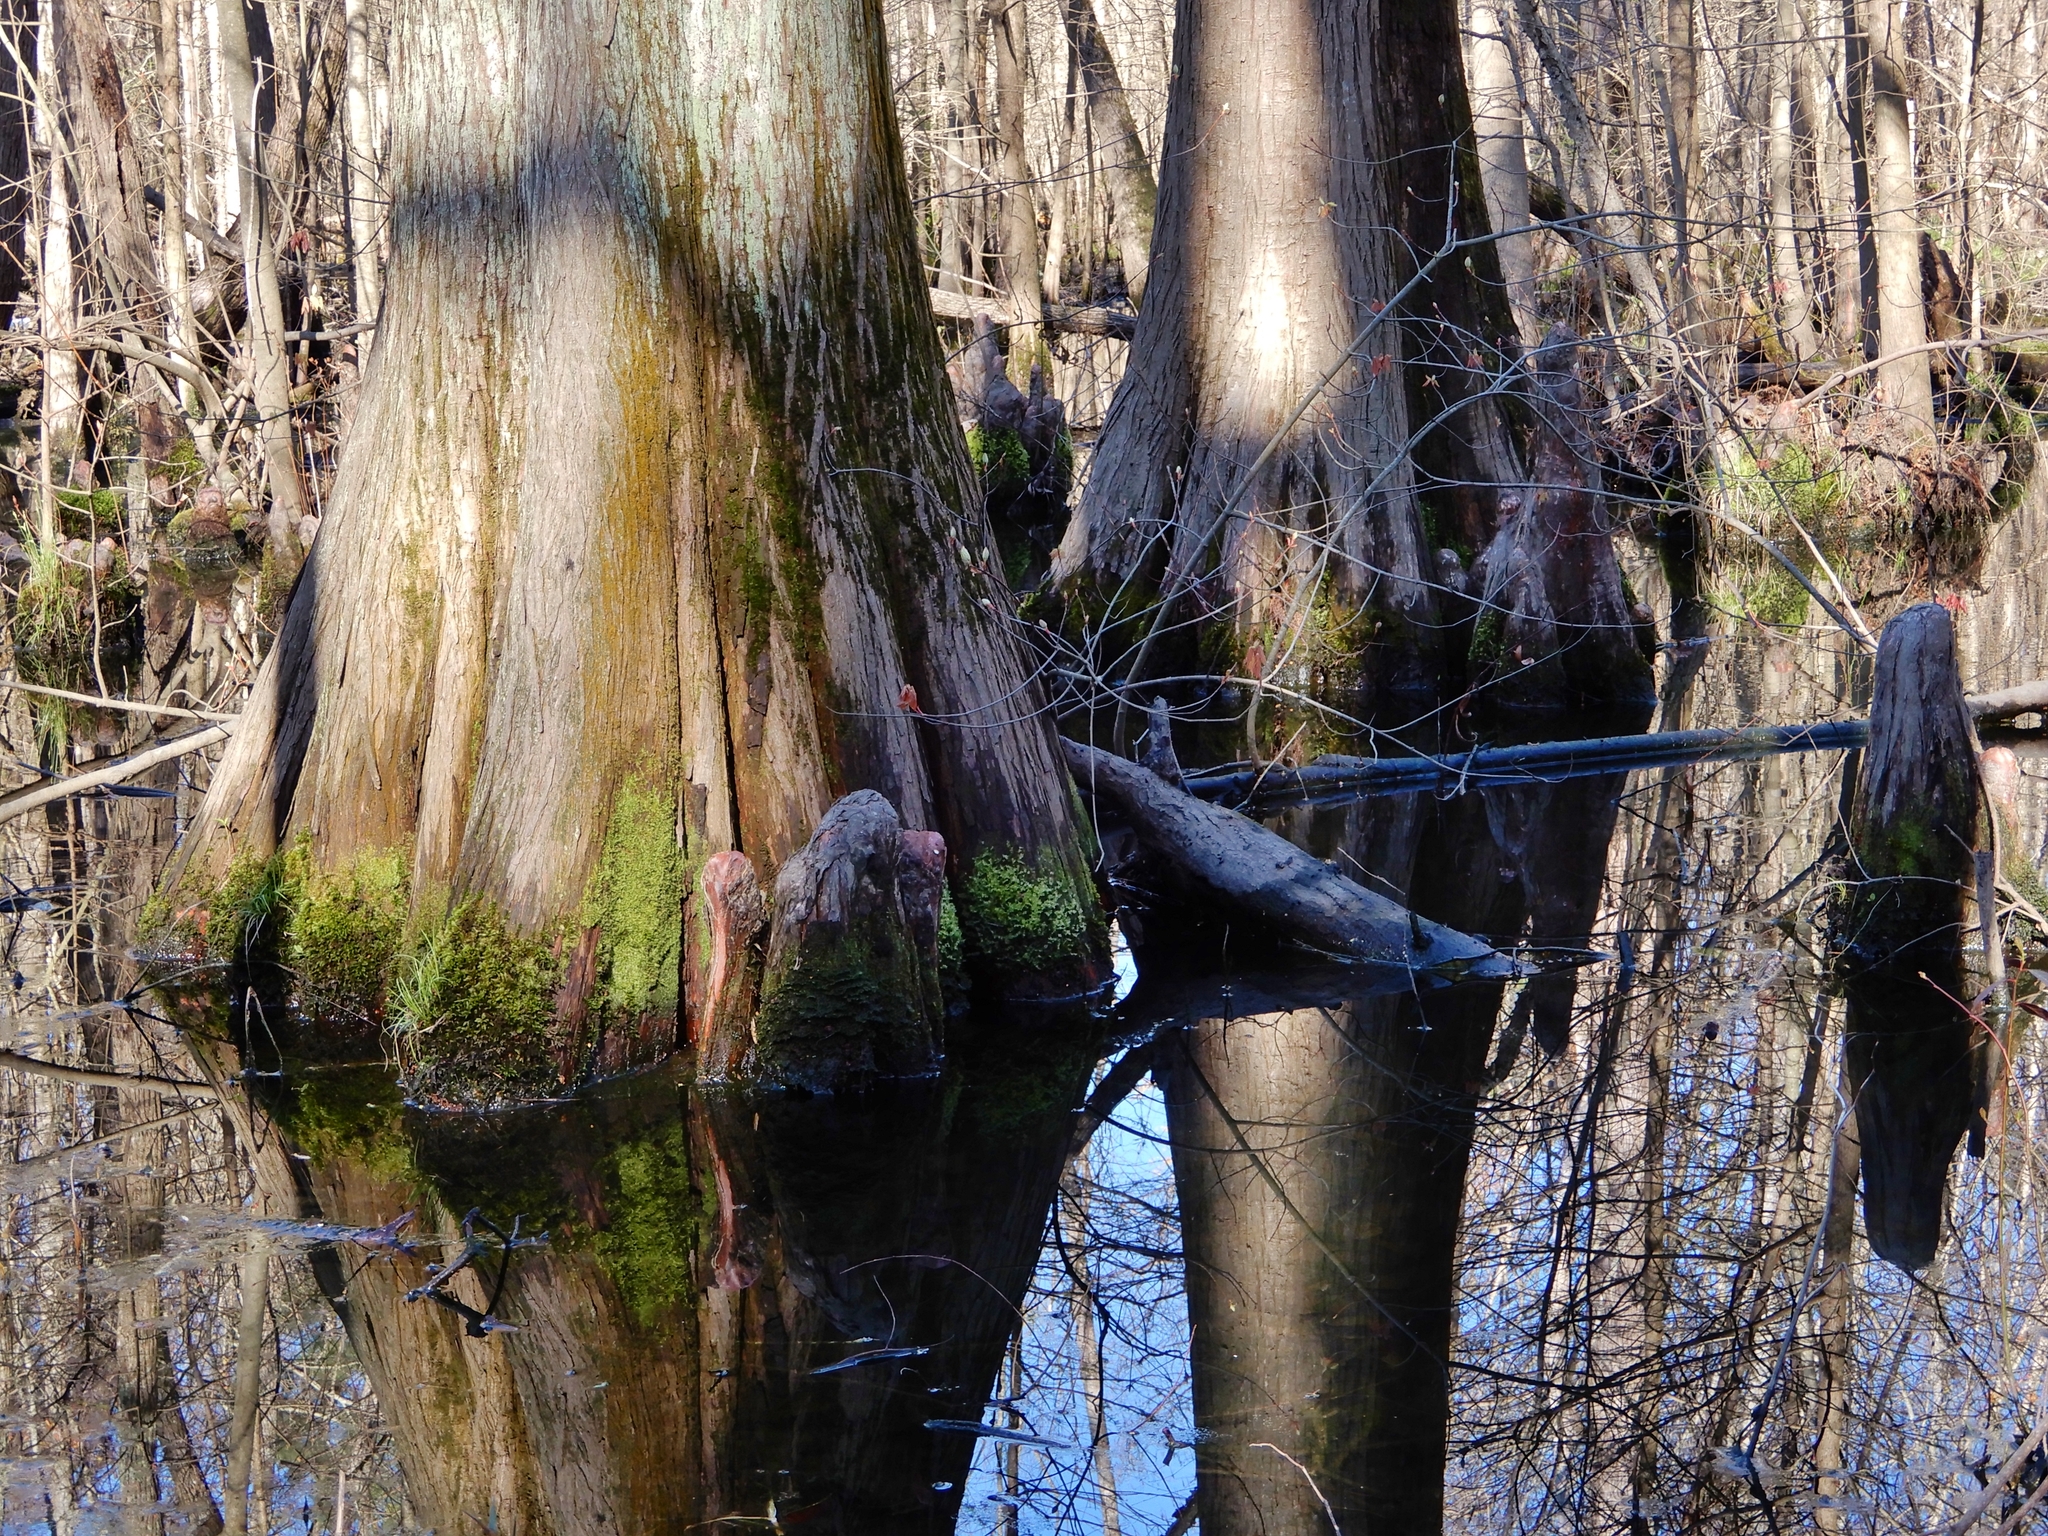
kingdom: Plantae
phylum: Tracheophyta
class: Pinopsida
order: Pinales
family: Cupressaceae
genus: Taxodium
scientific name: Taxodium distichum
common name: Bald cypress
